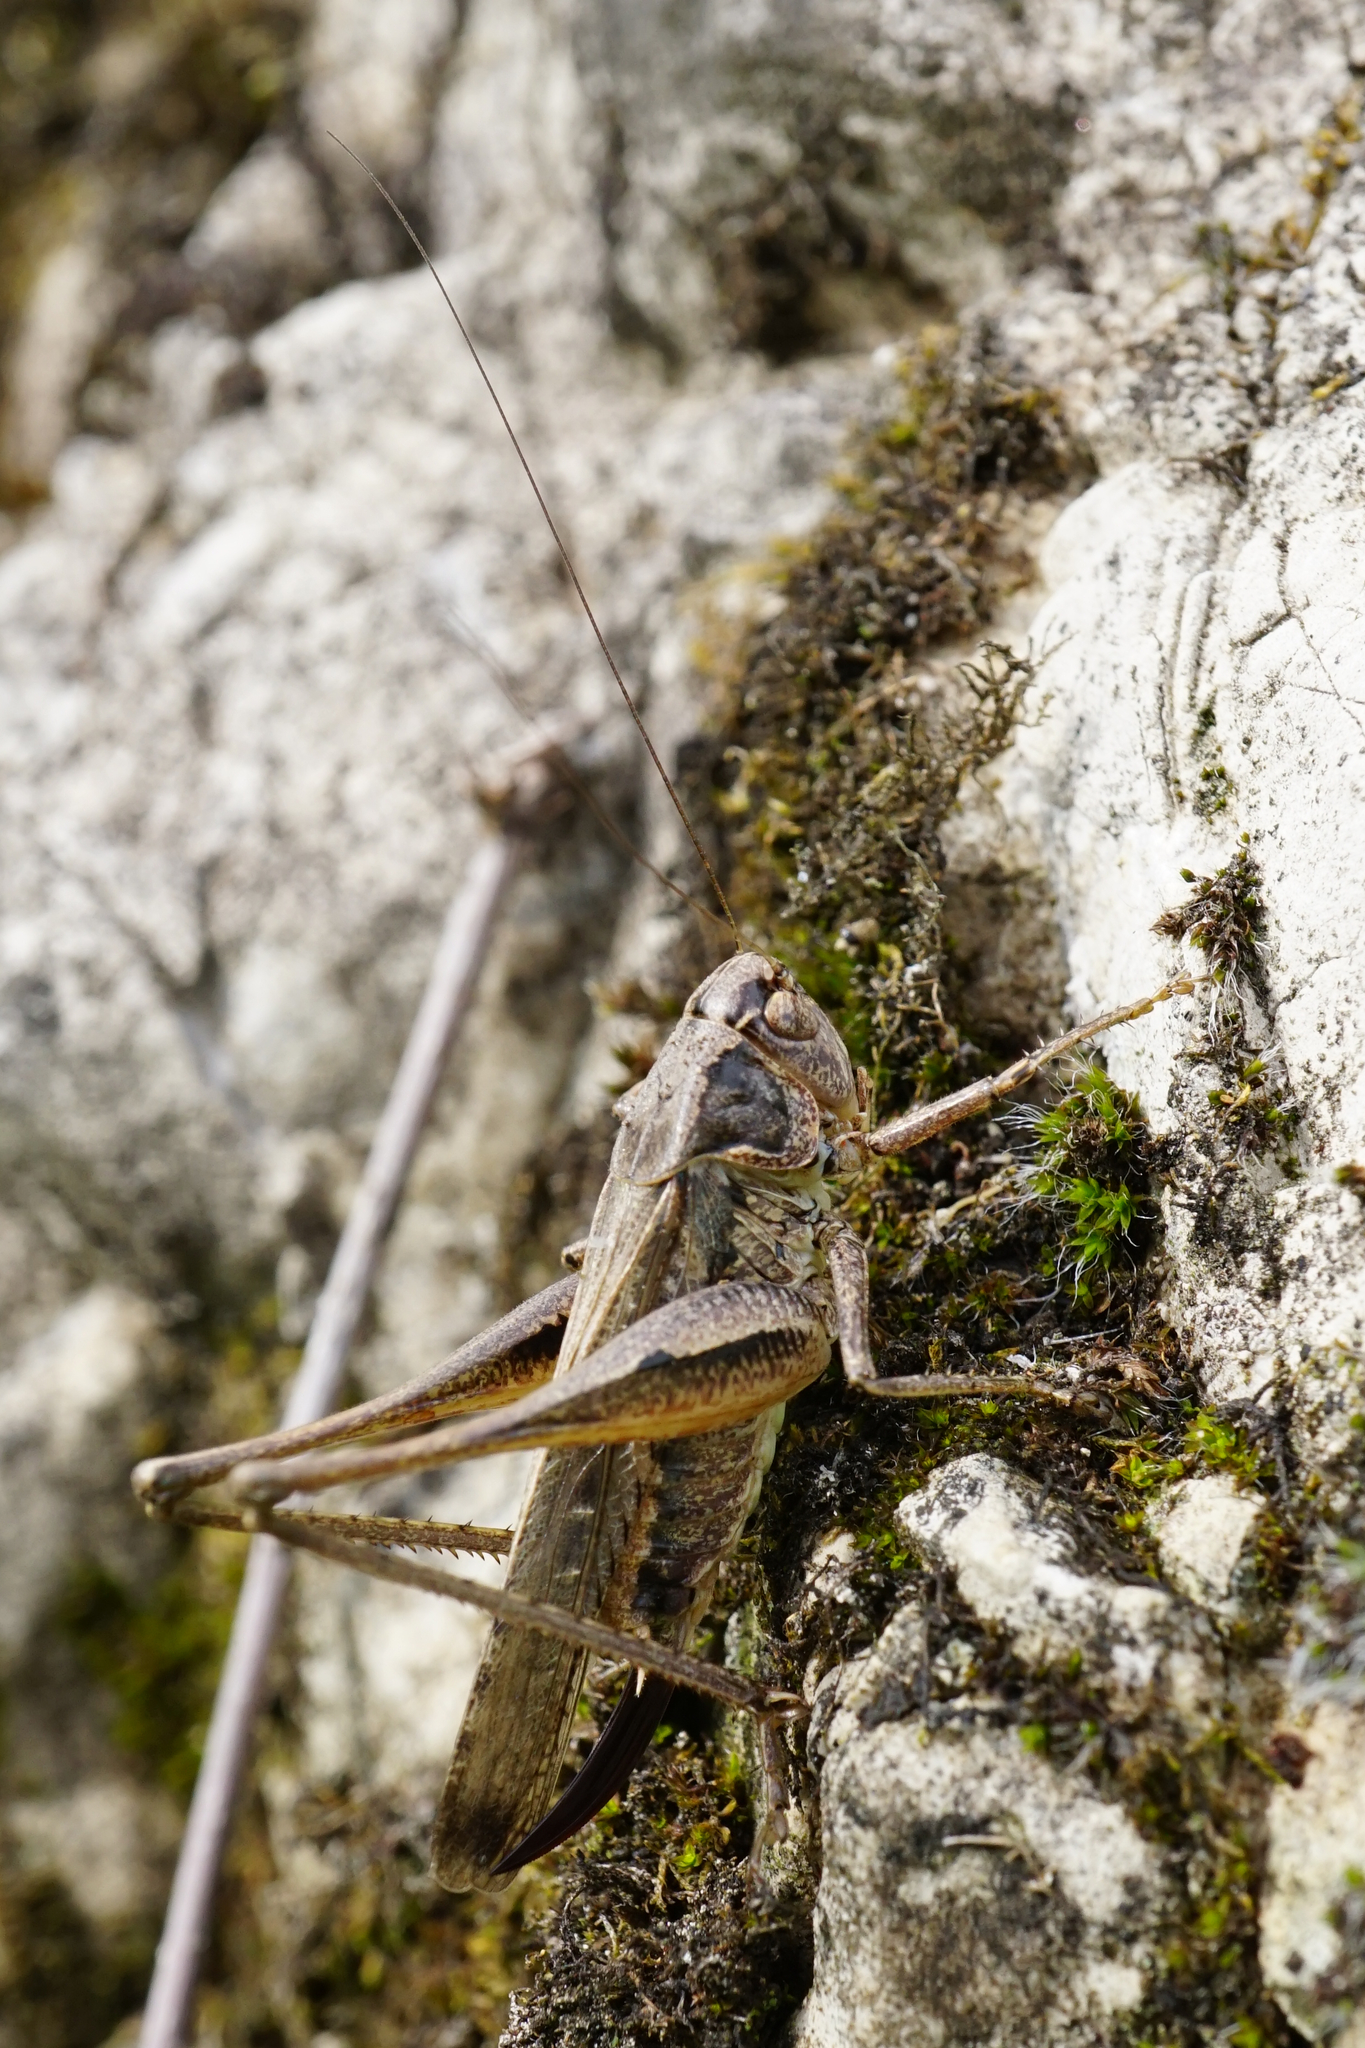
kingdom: Animalia
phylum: Arthropoda
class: Insecta
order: Orthoptera
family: Tettigoniidae
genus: Platycleis
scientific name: Platycleis grisea
